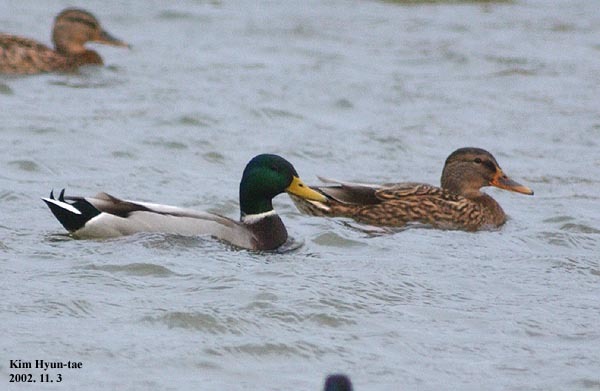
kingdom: Animalia
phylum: Chordata
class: Aves
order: Anseriformes
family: Anatidae
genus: Anas
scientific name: Anas platyrhynchos
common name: Mallard
